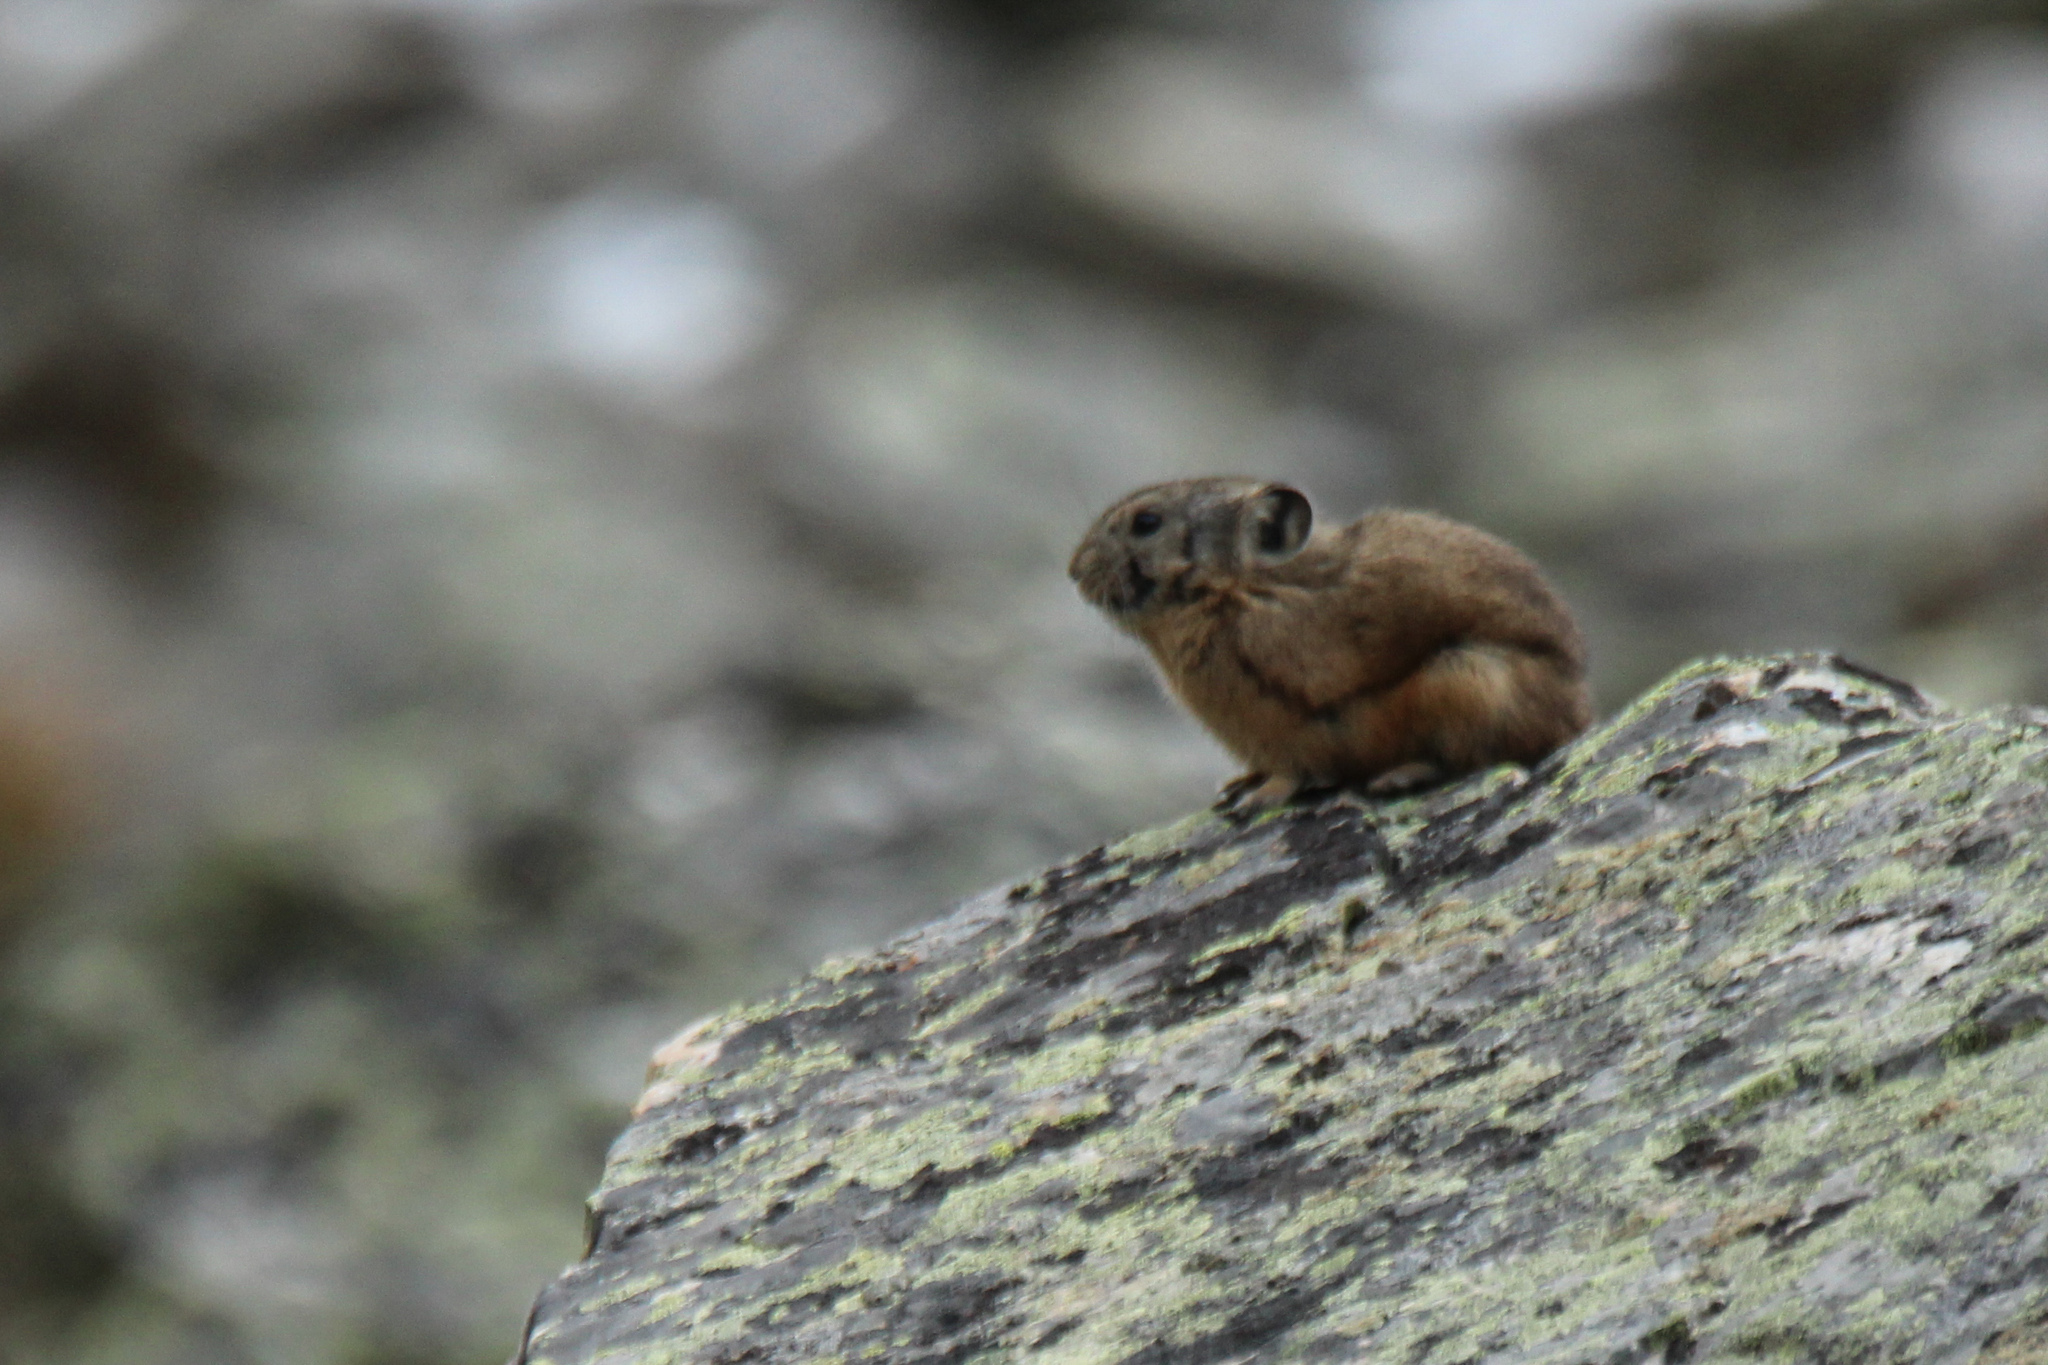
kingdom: Animalia
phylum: Chordata
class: Mammalia
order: Lagomorpha
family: Ochotonidae
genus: Ochotona
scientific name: Ochotona alpina
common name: Alpine pika
